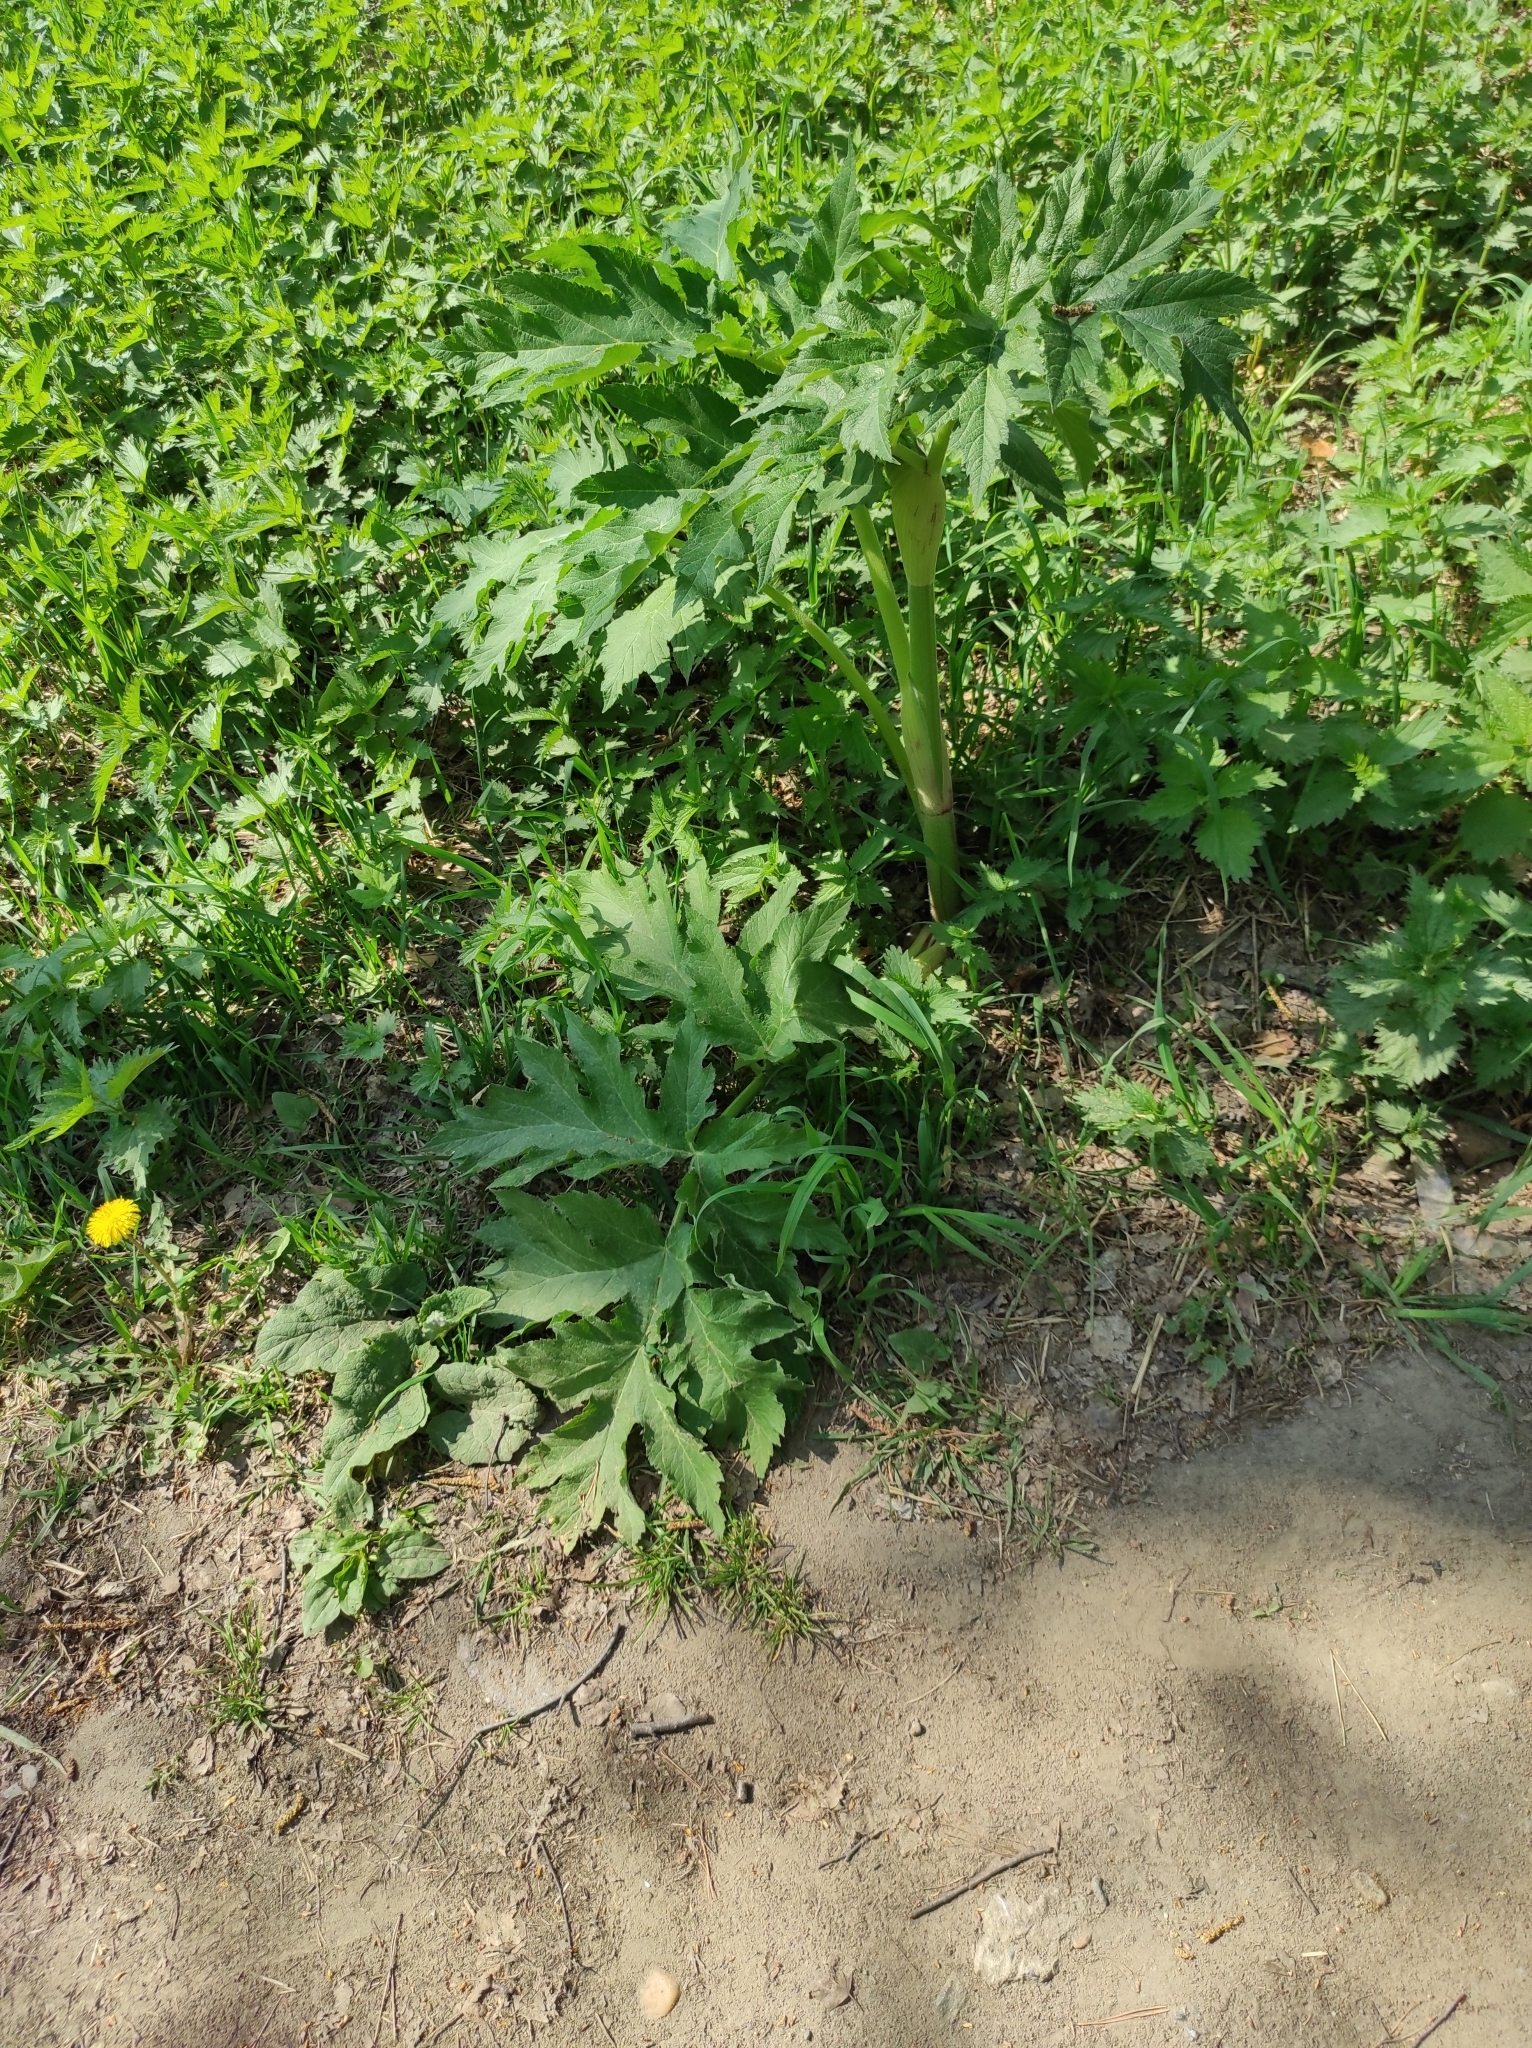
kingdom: Plantae
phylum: Tracheophyta
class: Magnoliopsida
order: Apiales
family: Apiaceae
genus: Heracleum
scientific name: Heracleum dissectum
